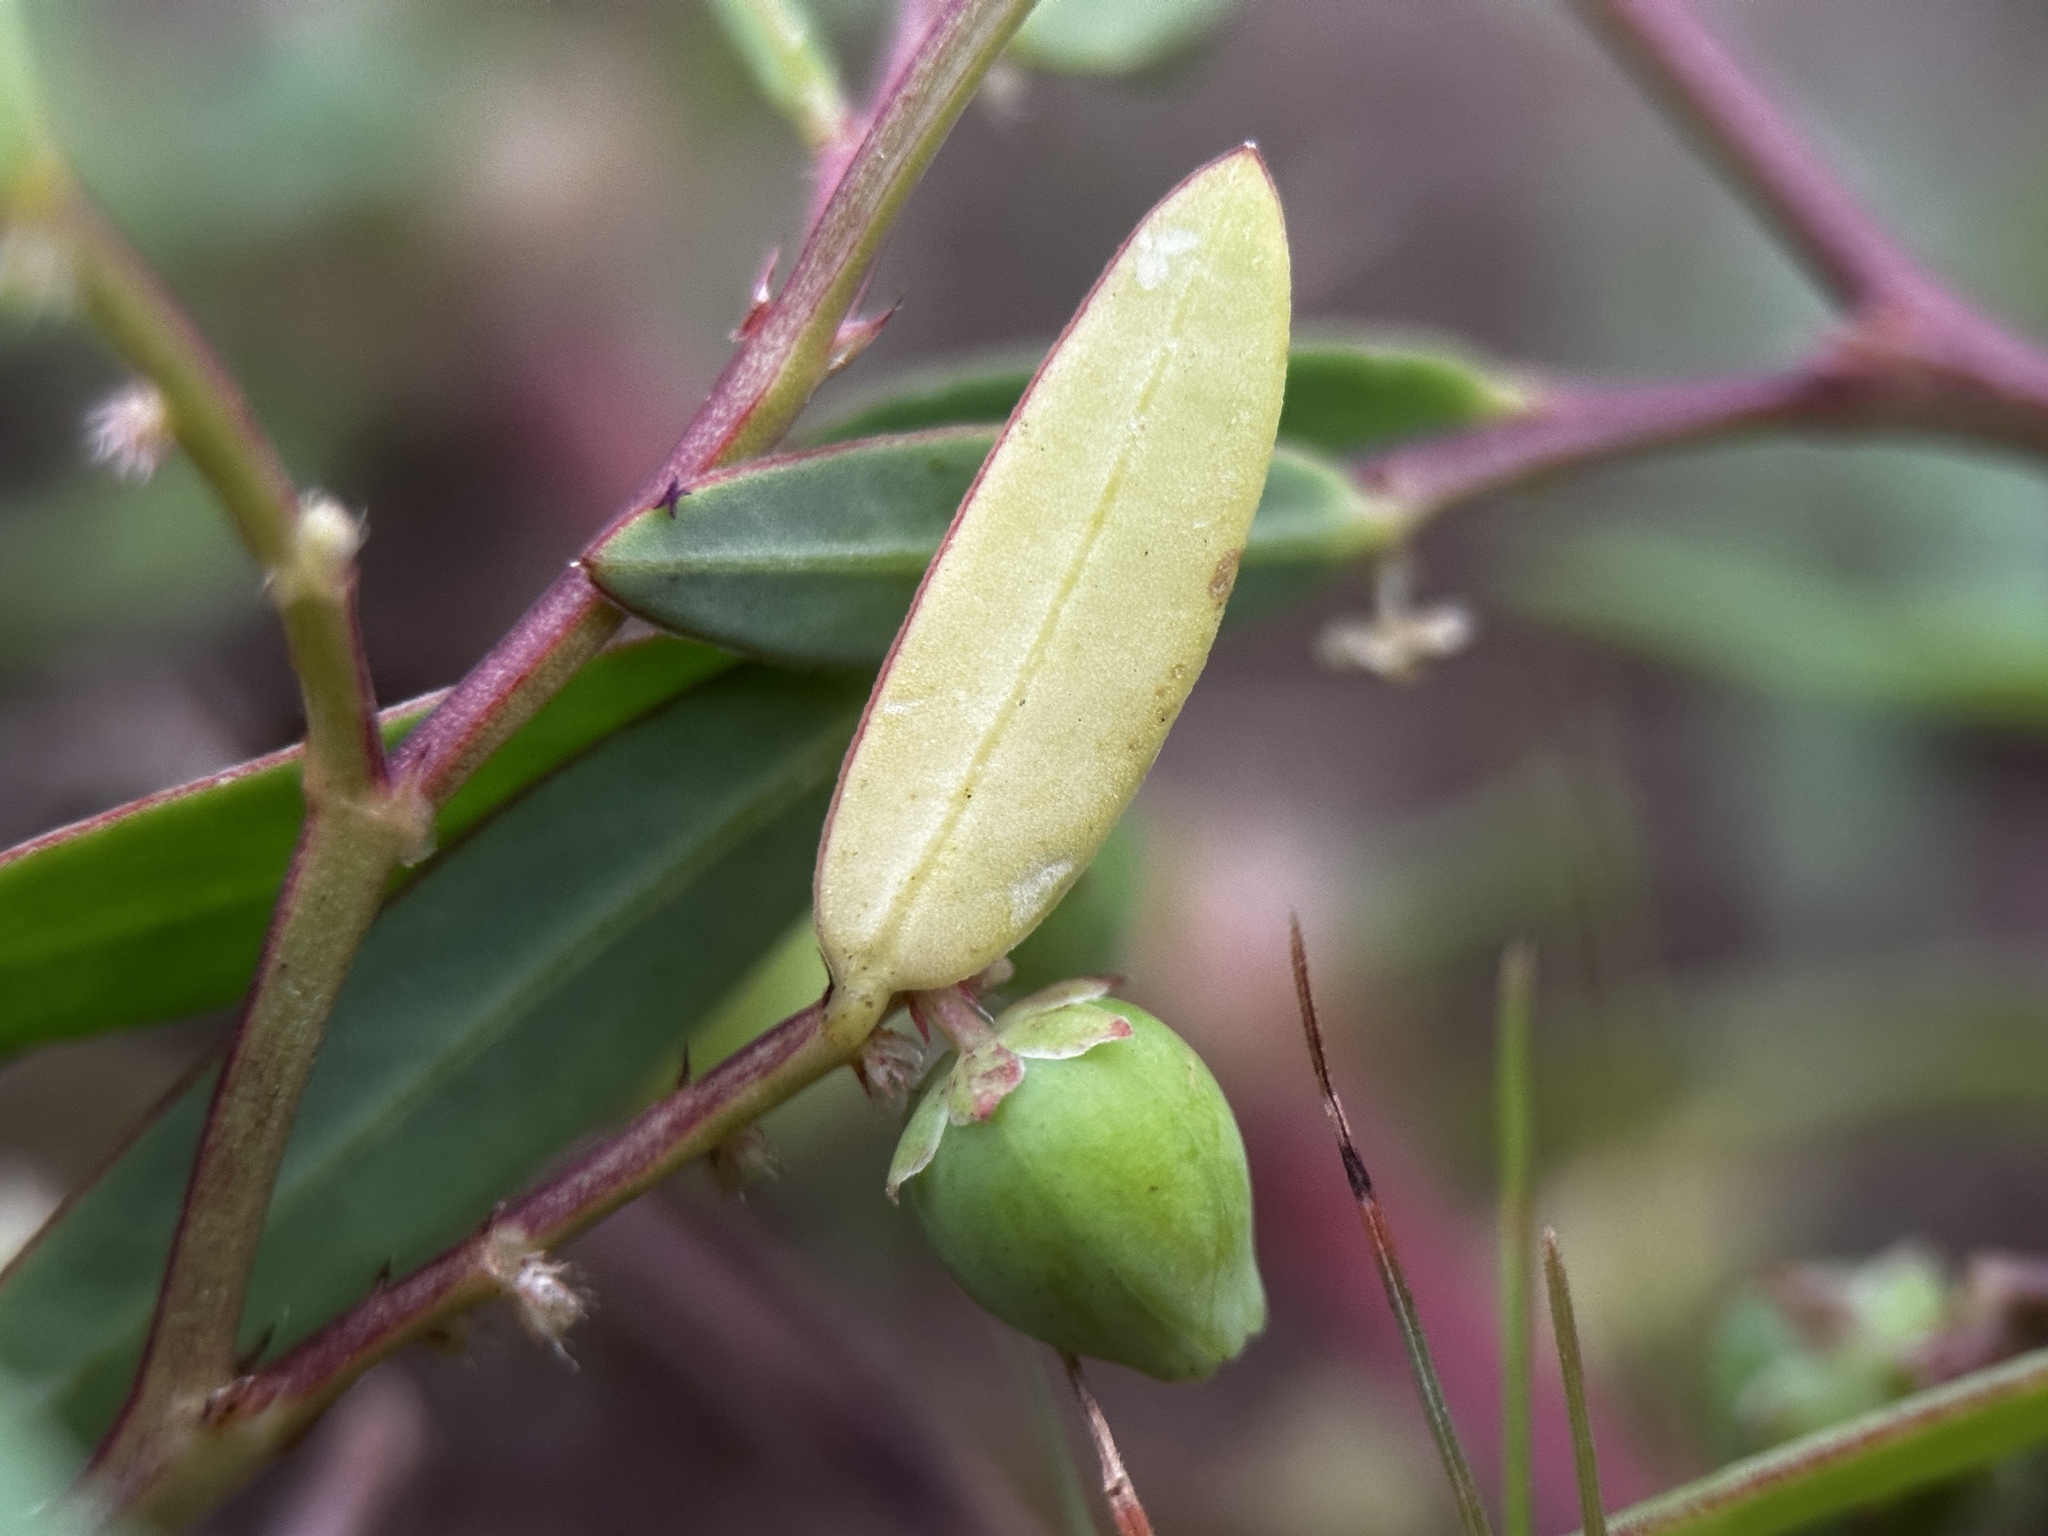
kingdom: Plantae
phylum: Tracheophyta
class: Magnoliopsida
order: Malpighiales
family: Phyllanthaceae
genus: Synostemon
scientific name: Synostemon bacciformis
